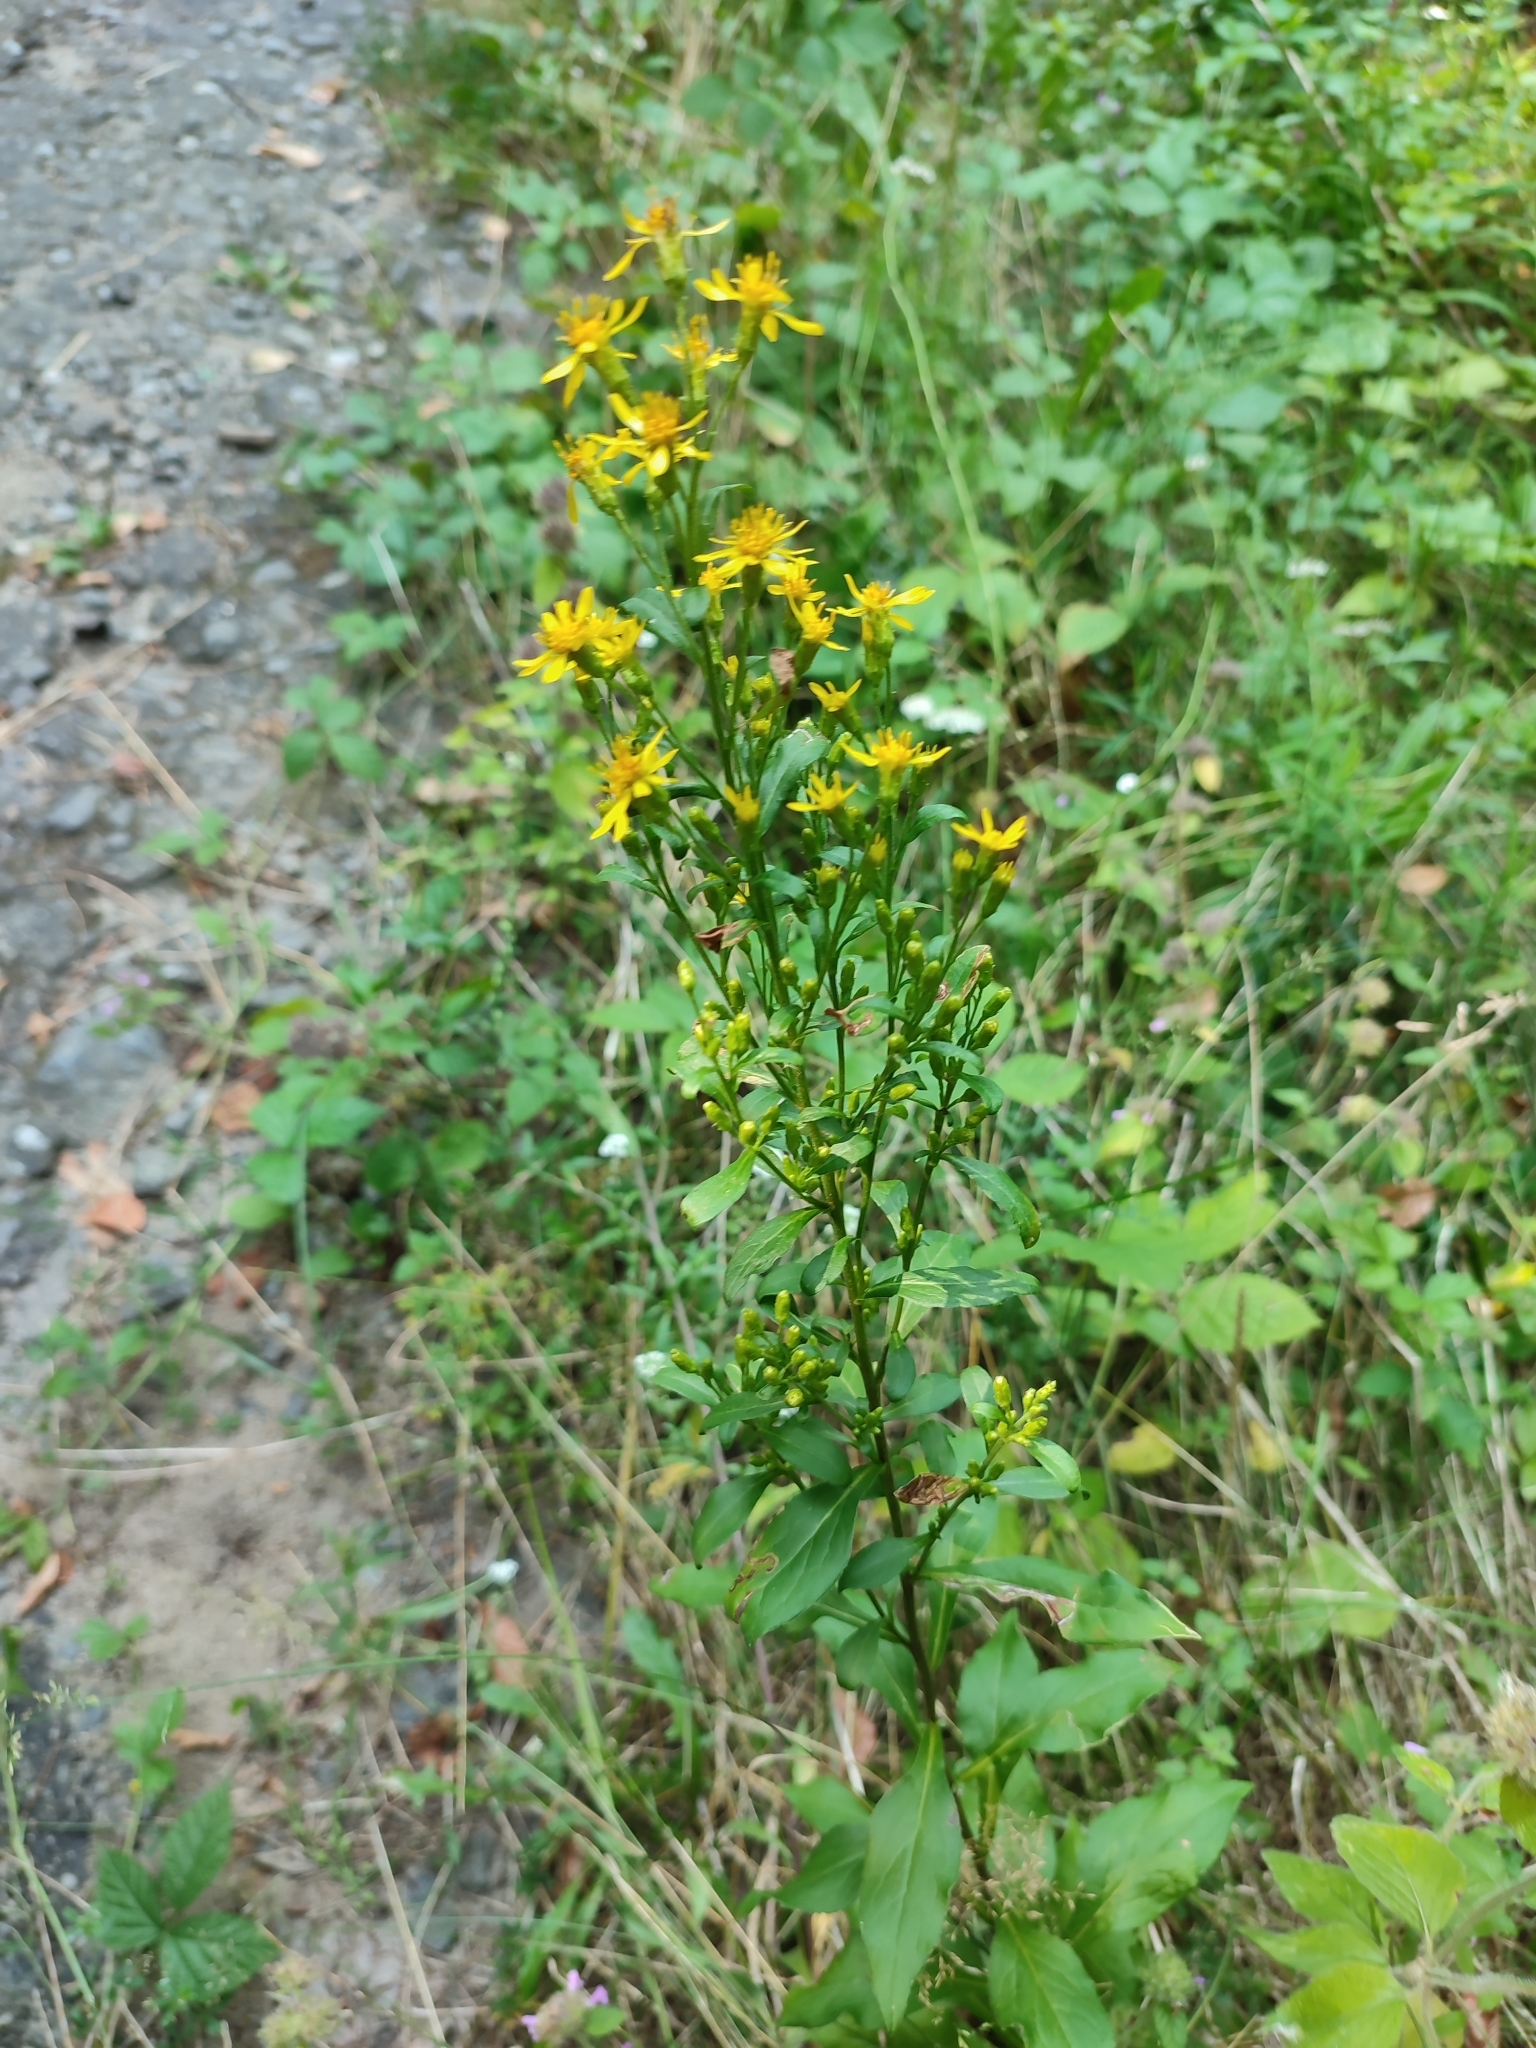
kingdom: Plantae
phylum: Tracheophyta
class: Magnoliopsida
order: Asterales
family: Asteraceae
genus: Solidago
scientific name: Solidago virgaurea
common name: Goldenrod
